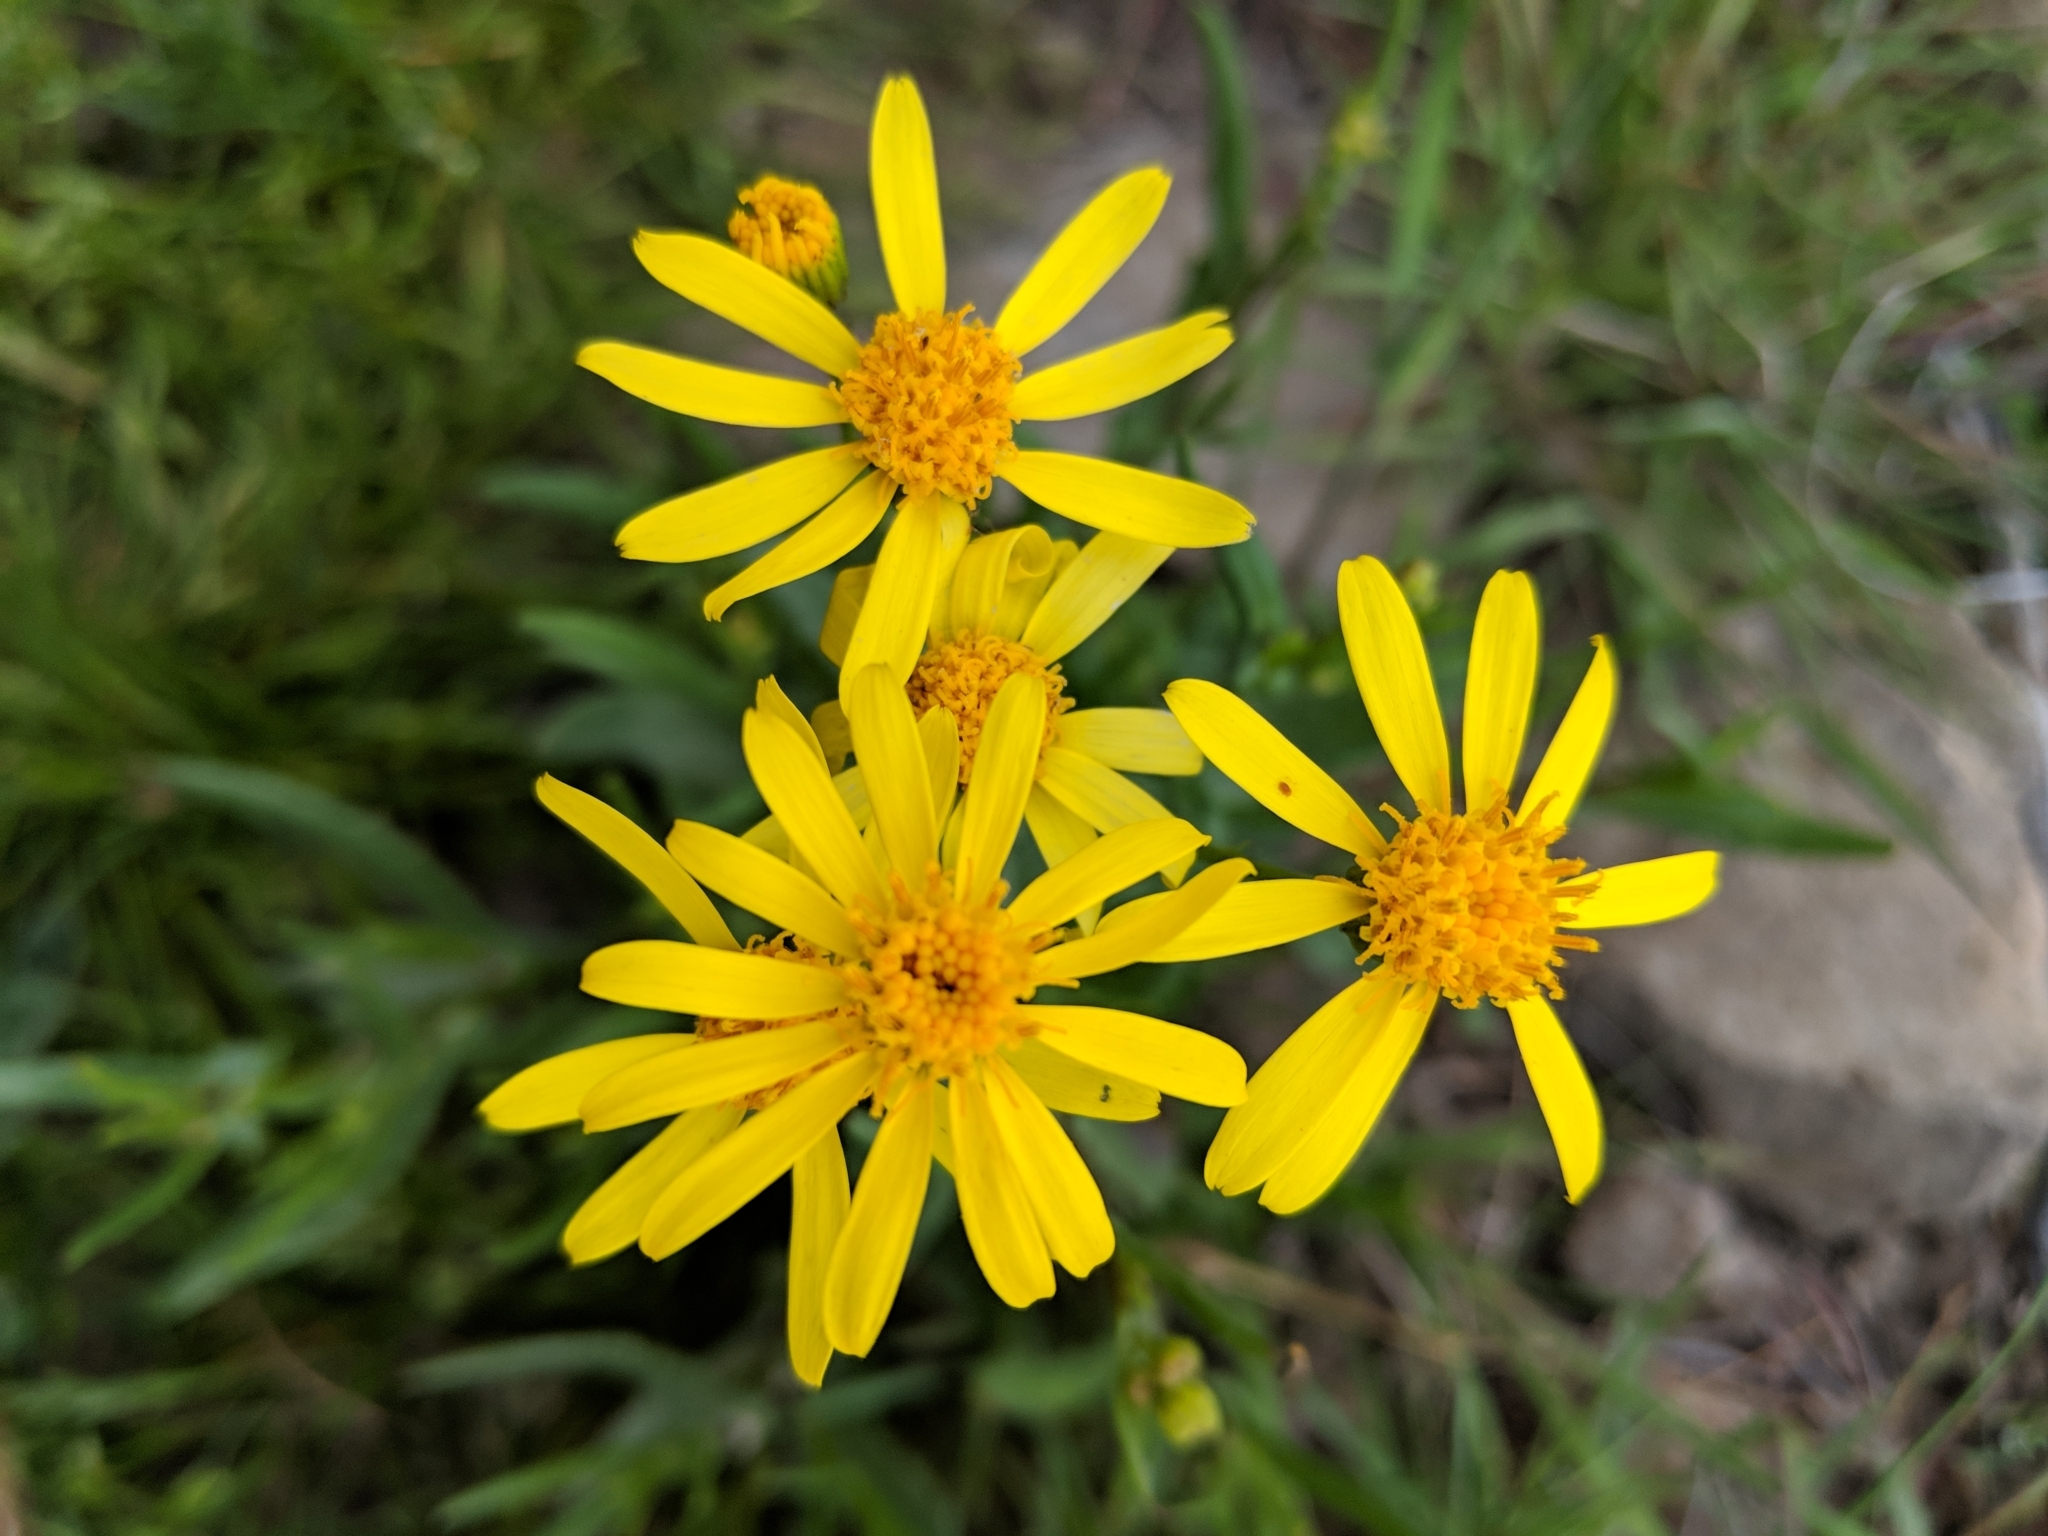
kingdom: Plantae
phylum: Tracheophyta
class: Magnoliopsida
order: Asterales
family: Asteraceae
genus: Senecio
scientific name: Senecio lemmonii
